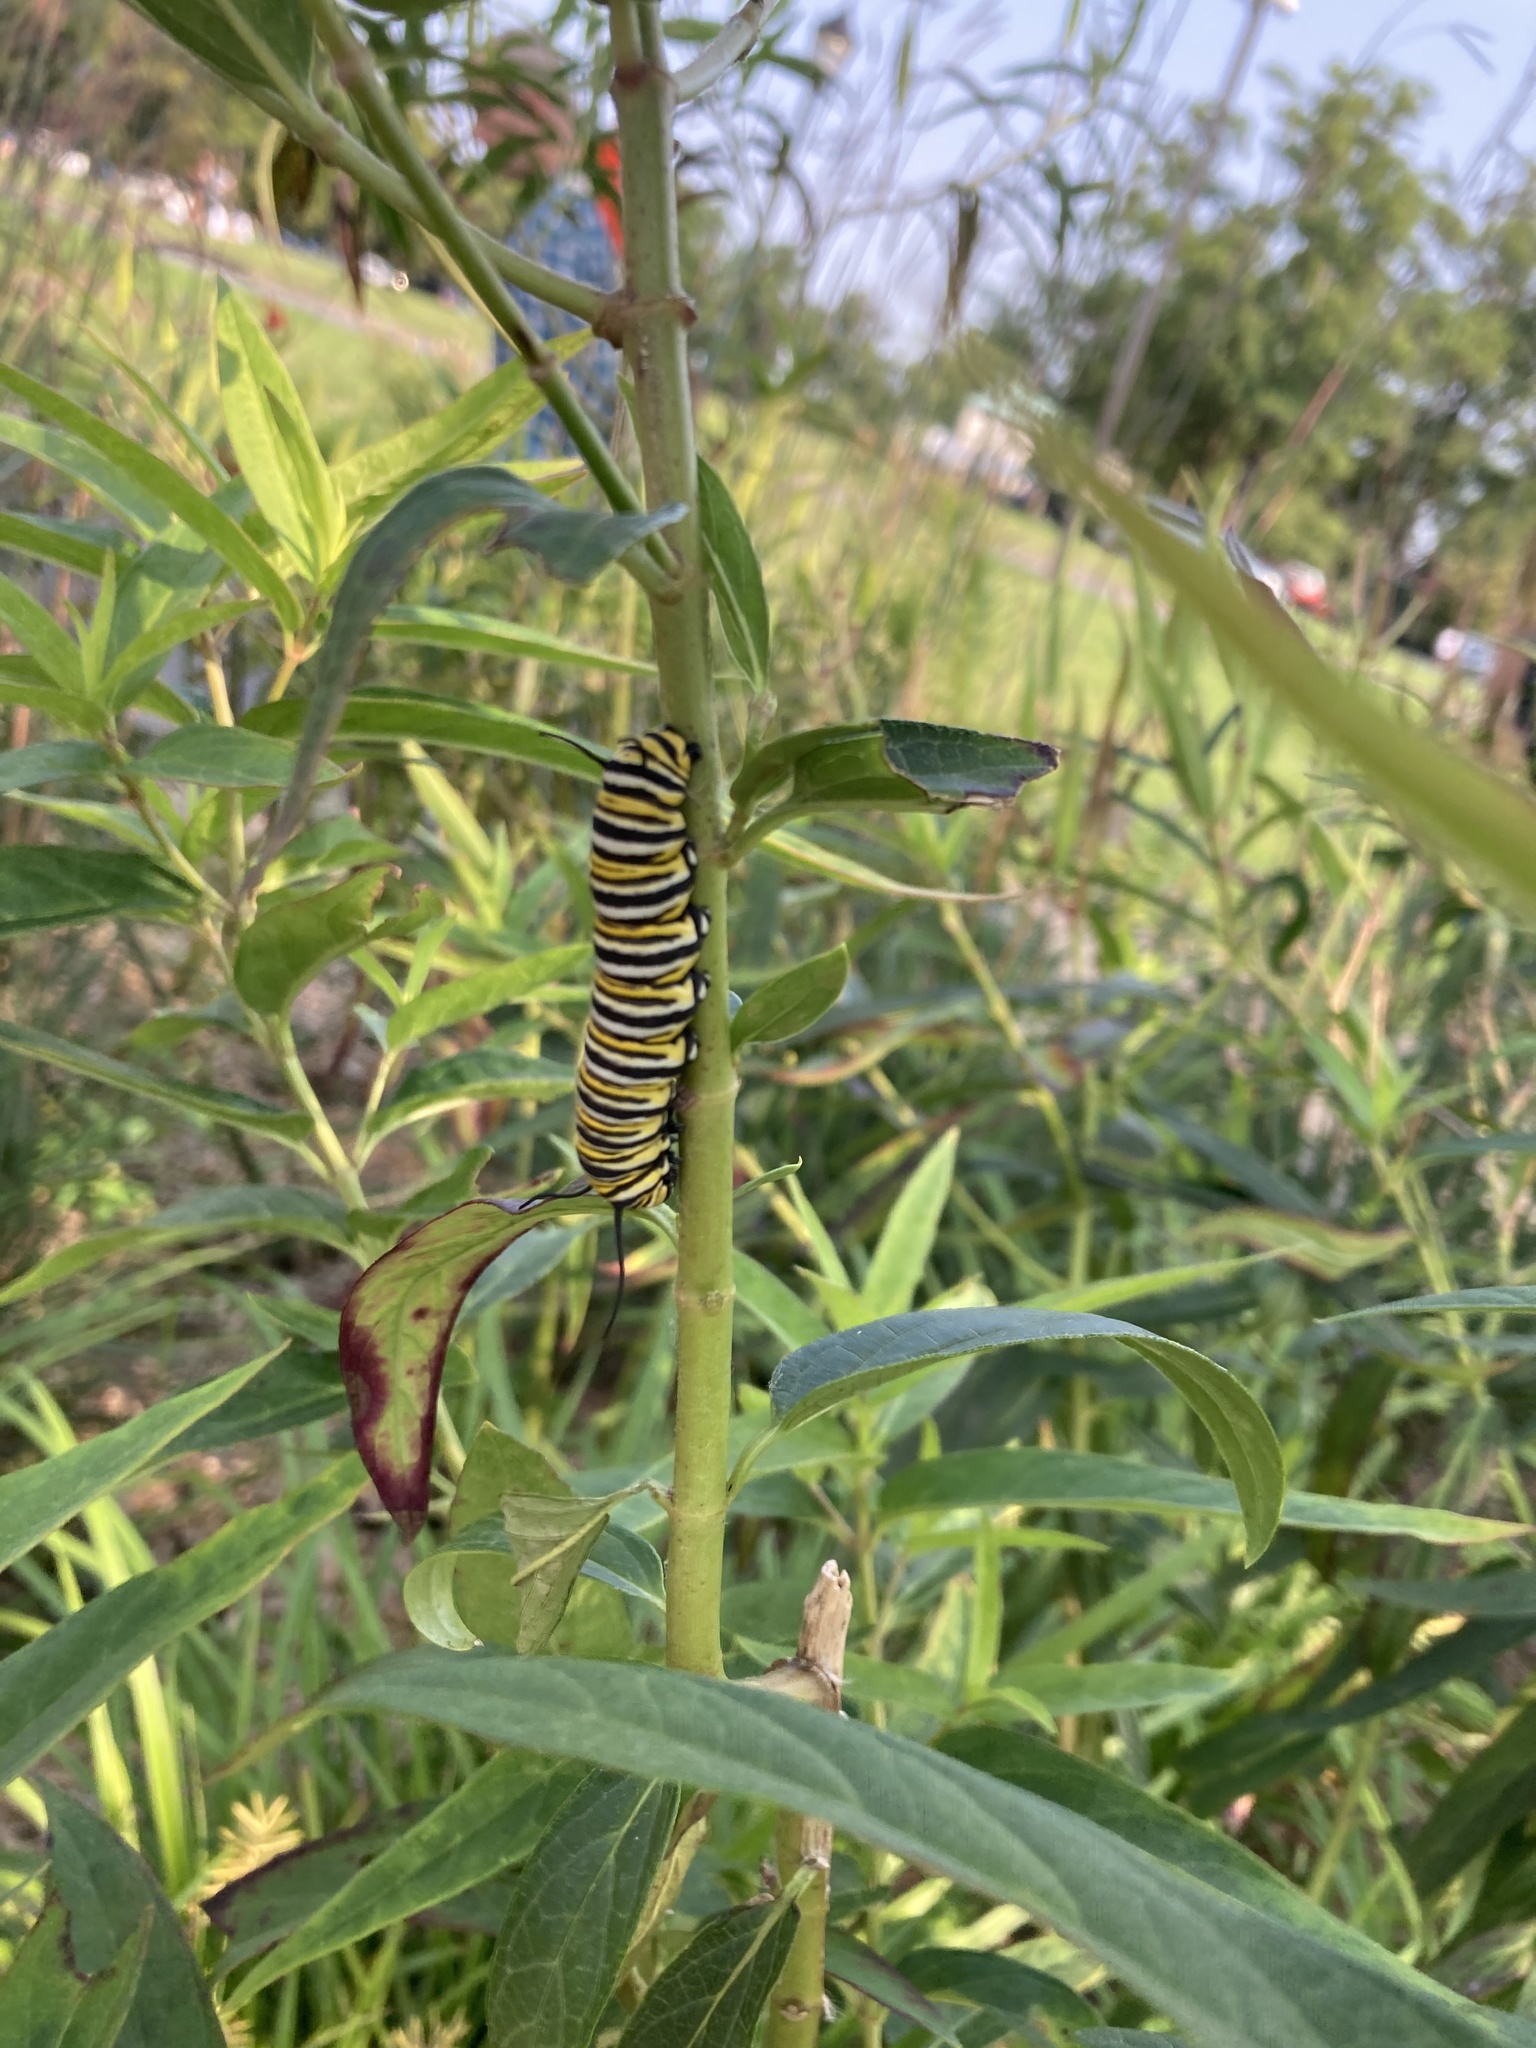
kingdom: Animalia
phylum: Arthropoda
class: Insecta
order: Lepidoptera
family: Nymphalidae
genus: Danaus
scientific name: Danaus plexippus
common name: Monarch
